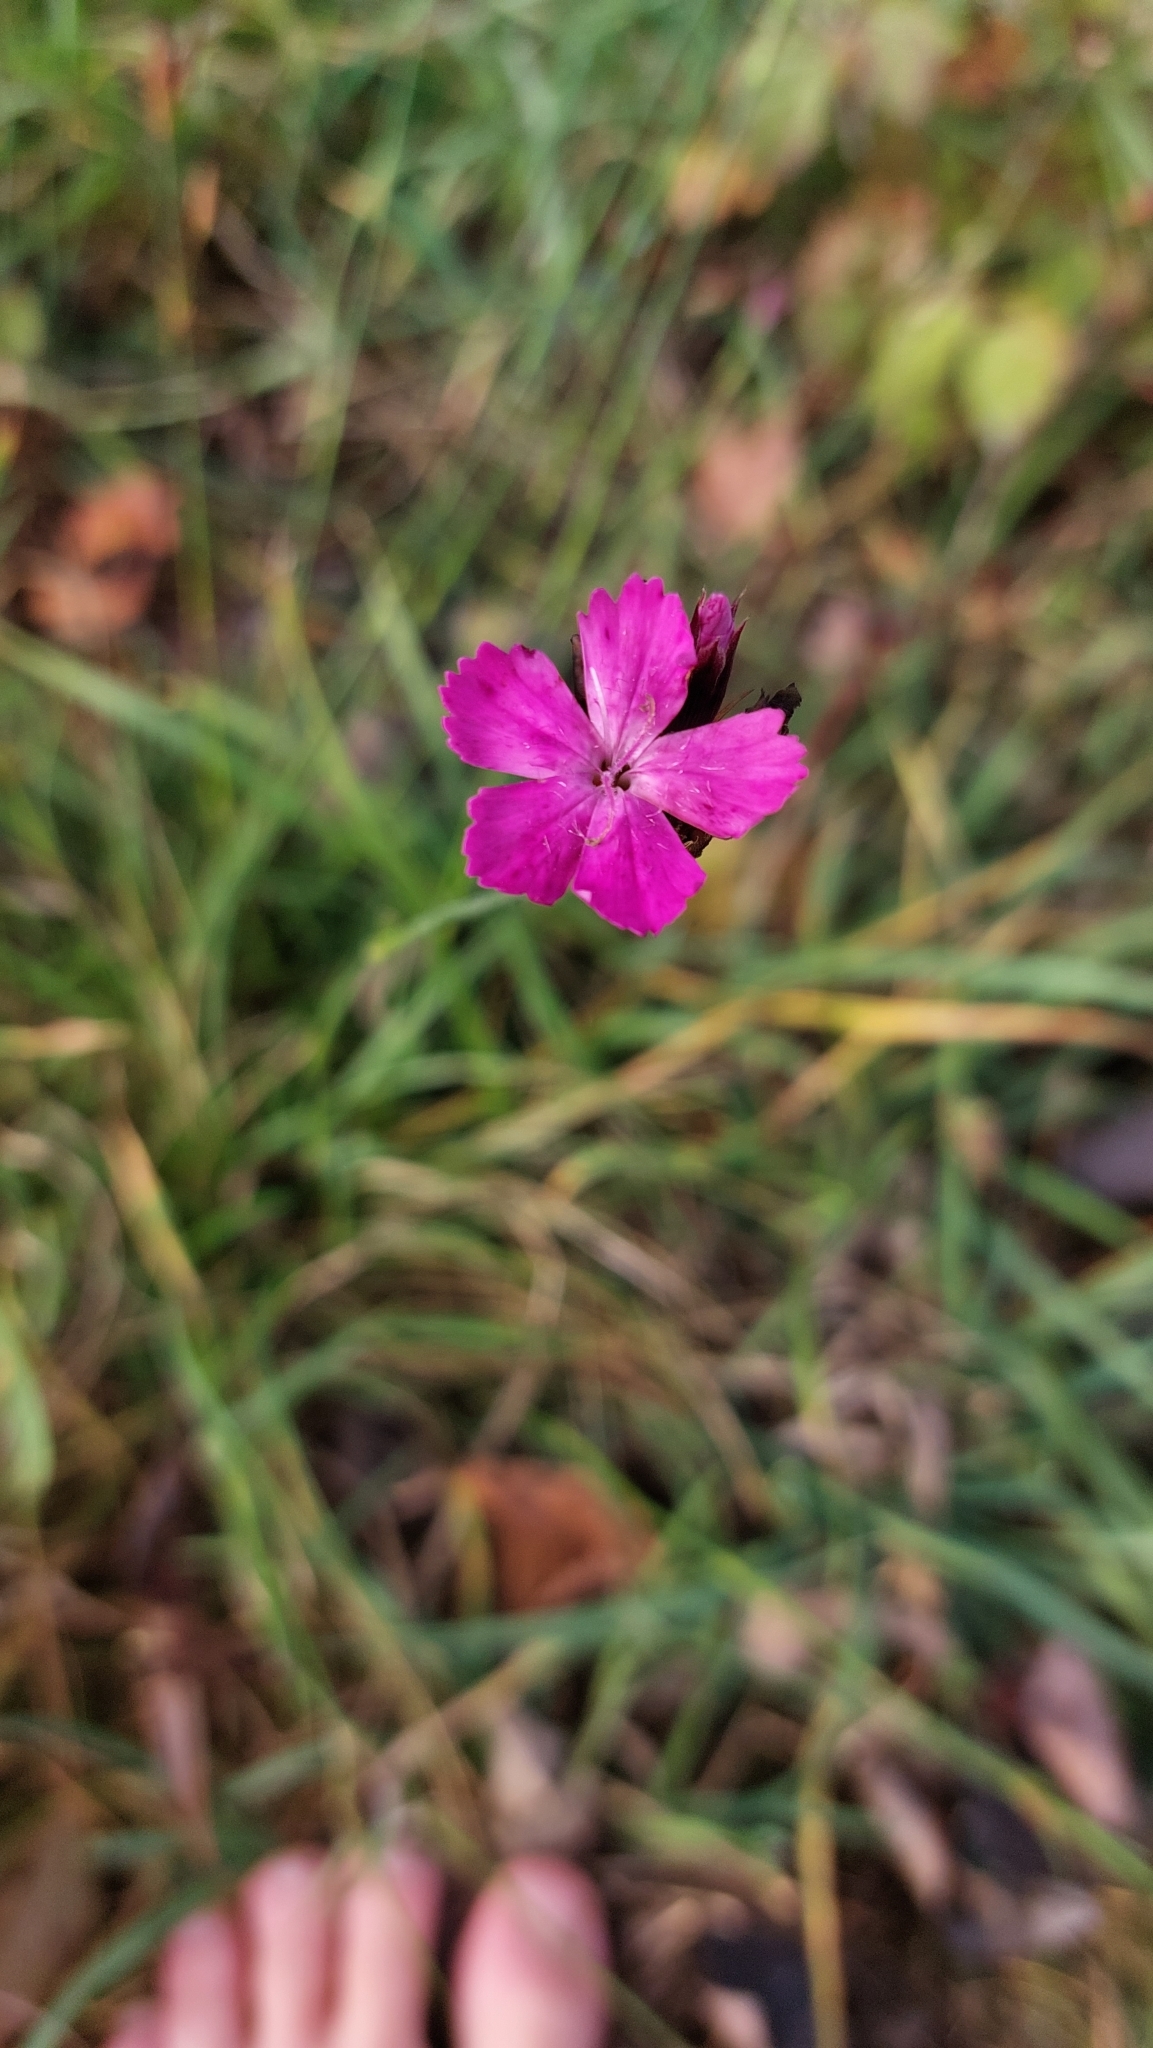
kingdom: Plantae
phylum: Tracheophyta
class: Magnoliopsida
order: Caryophyllales
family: Caryophyllaceae
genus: Dianthus
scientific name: Dianthus carthusianorum
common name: Carthusian pink
